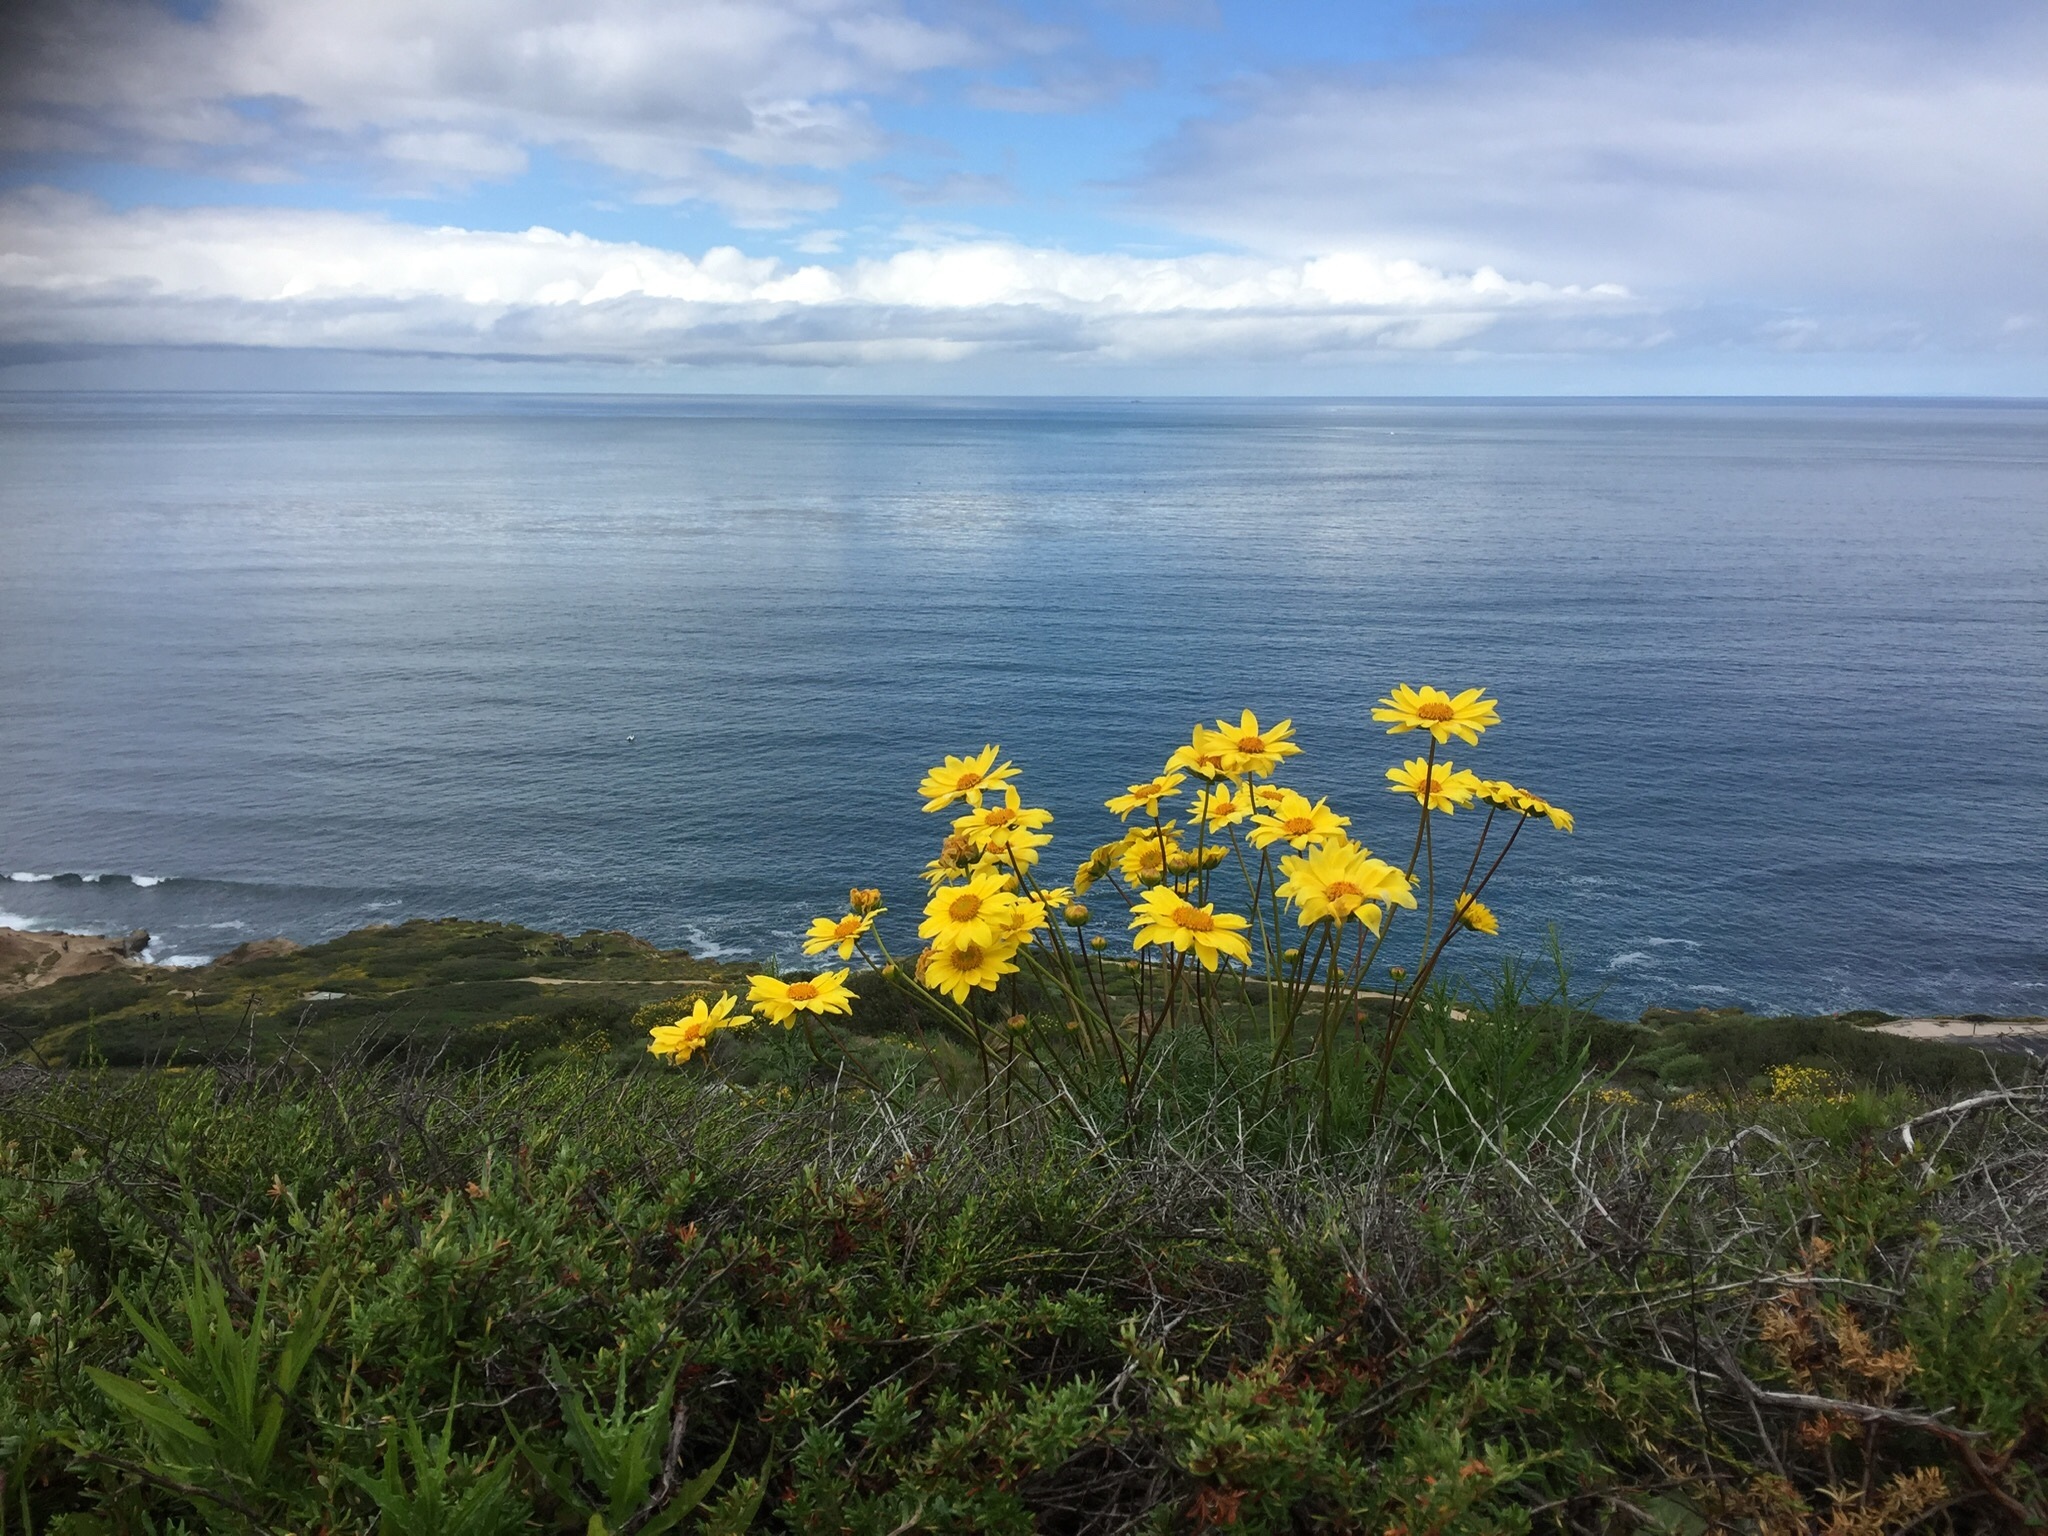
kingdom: Plantae
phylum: Tracheophyta
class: Magnoliopsida
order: Asterales
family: Asteraceae
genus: Coreopsis
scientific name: Coreopsis maritima
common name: Sea-dahlia
